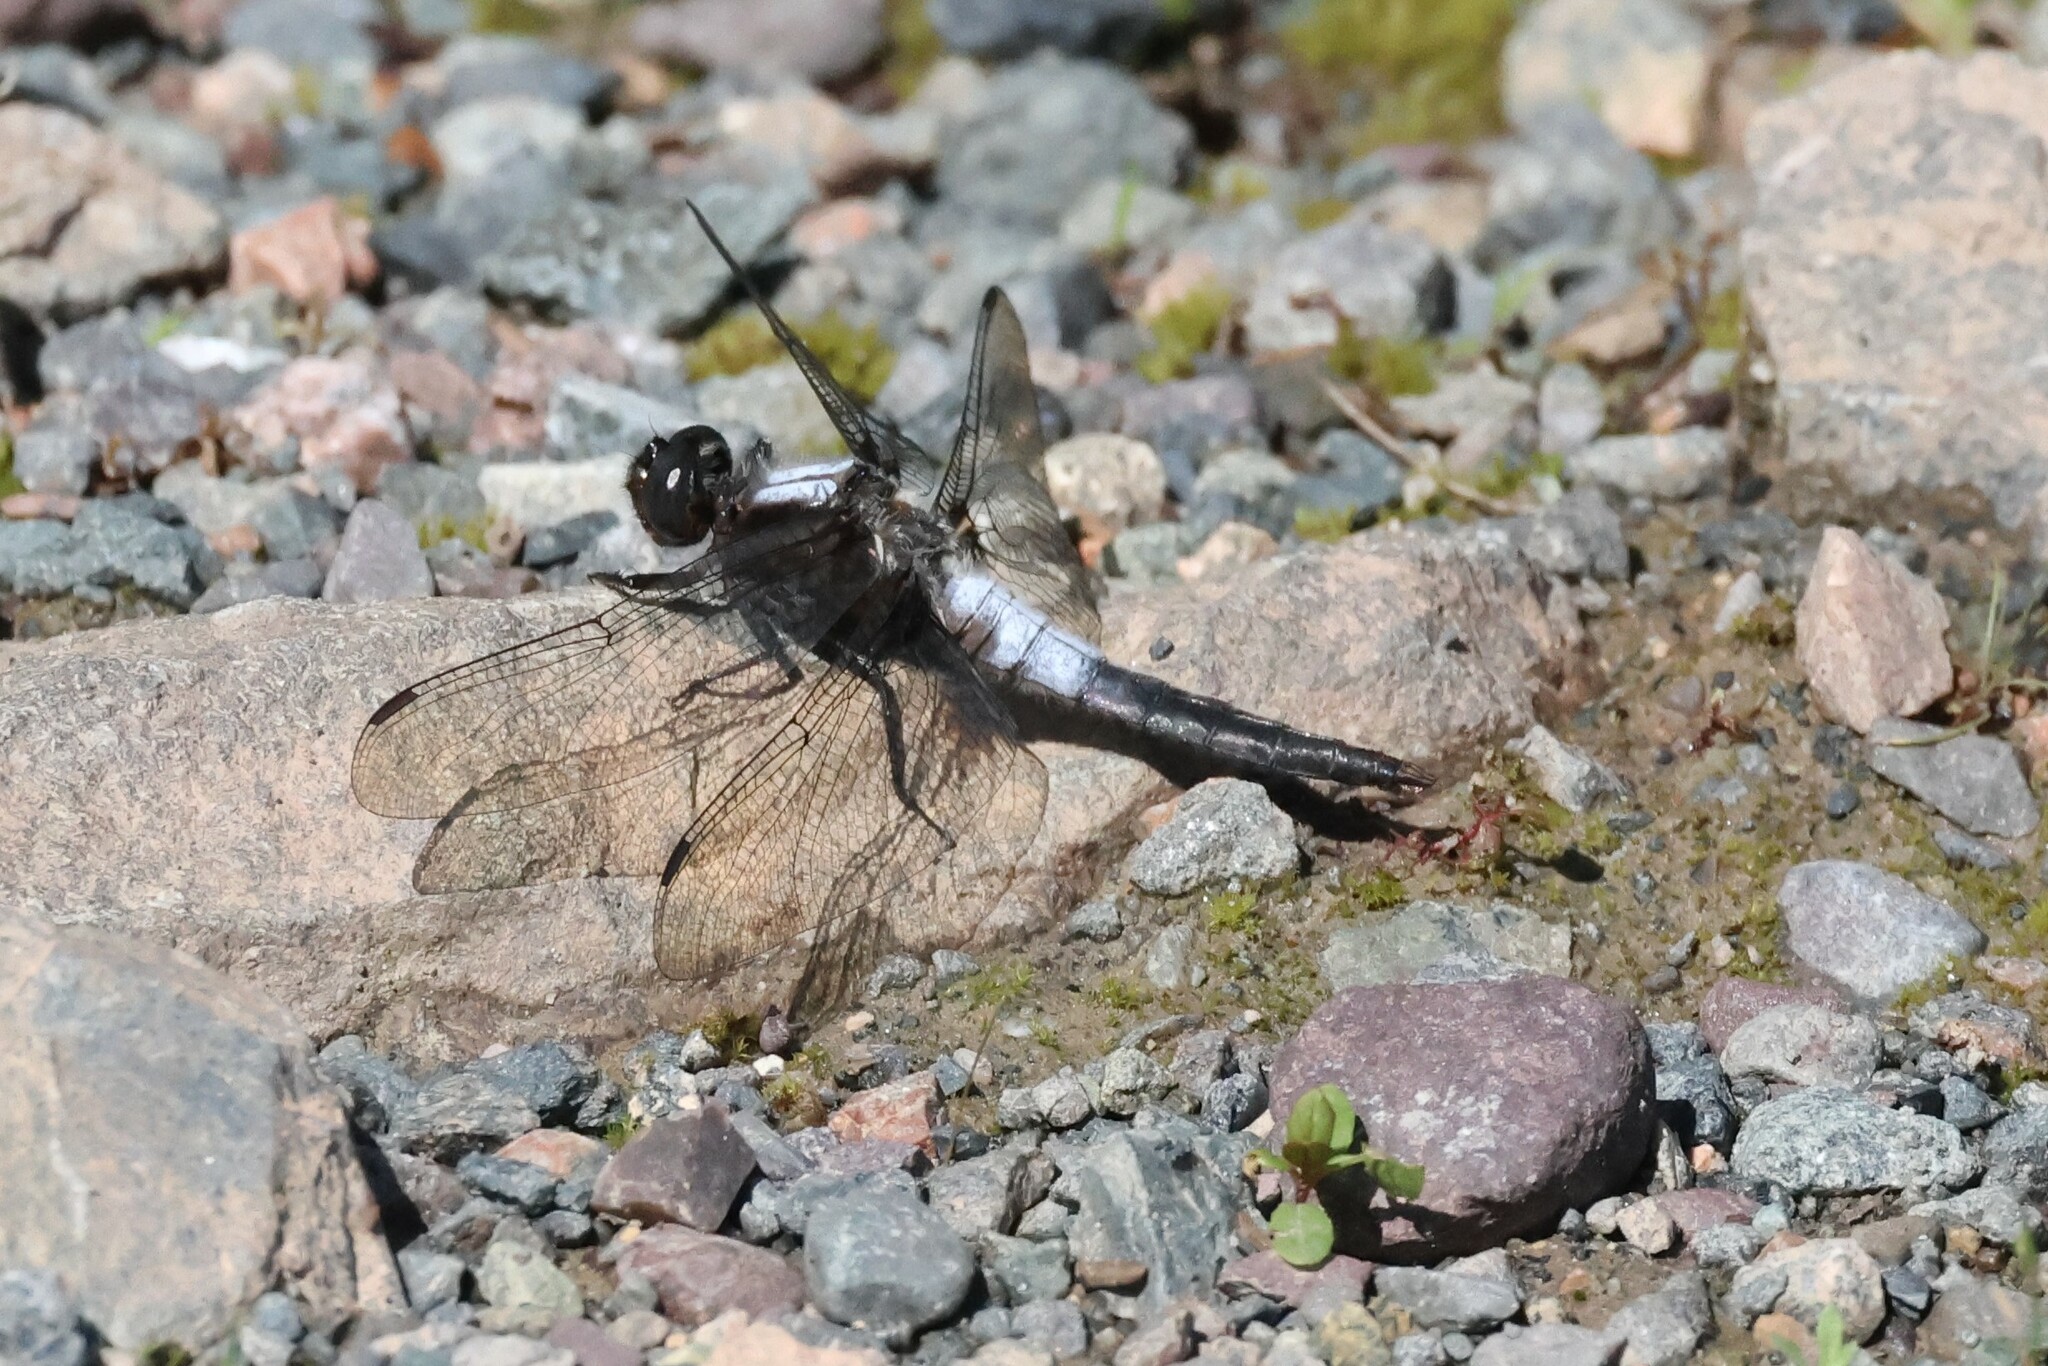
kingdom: Animalia
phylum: Arthropoda
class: Insecta
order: Odonata
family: Libellulidae
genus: Ladona
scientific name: Ladona julia
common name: Chalk-fronted corporal
